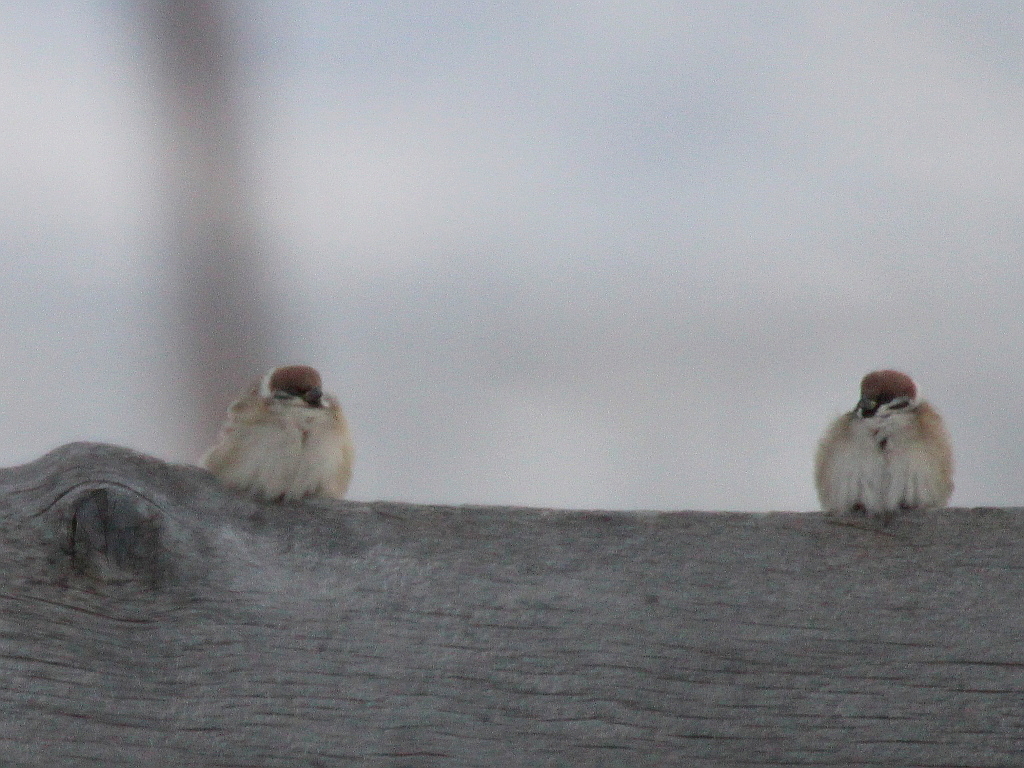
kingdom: Animalia
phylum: Chordata
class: Aves
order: Passeriformes
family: Passeridae
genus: Passer
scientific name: Passer montanus
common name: Eurasian tree sparrow
